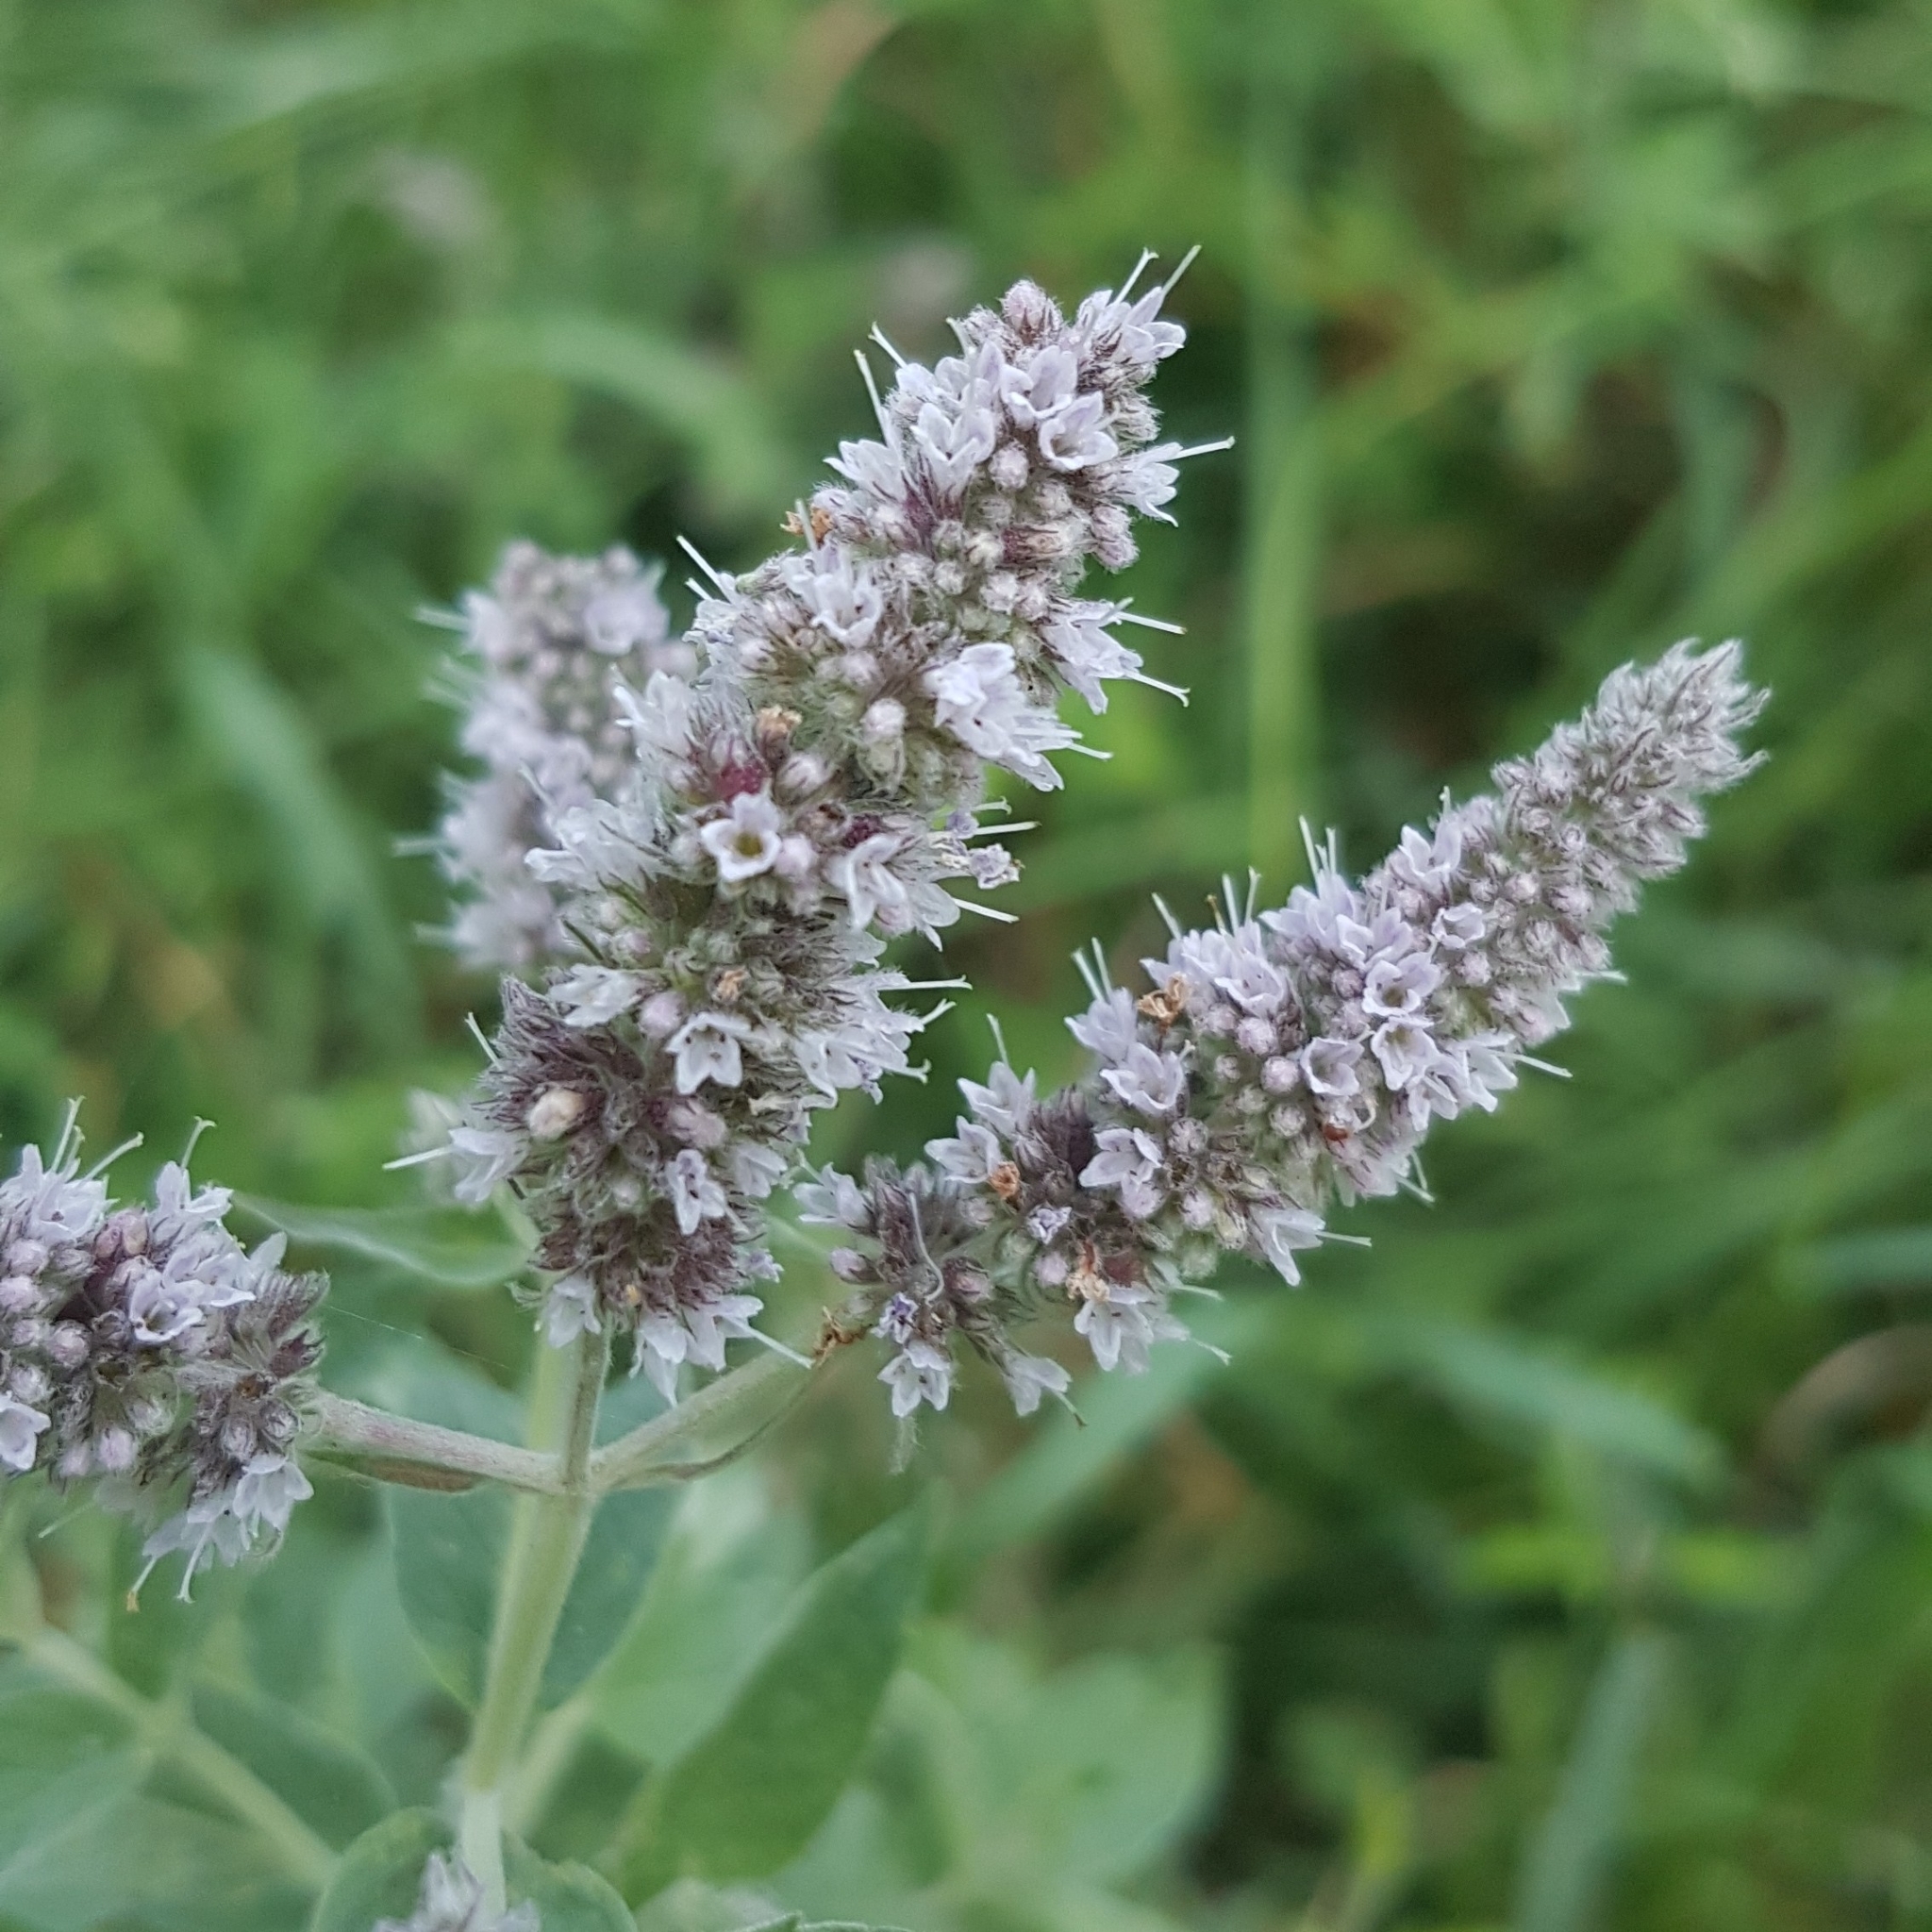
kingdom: Plantae
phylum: Tracheophyta
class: Magnoliopsida
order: Lamiales
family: Lamiaceae
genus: Mentha
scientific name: Mentha longifolia
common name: Horse mint
